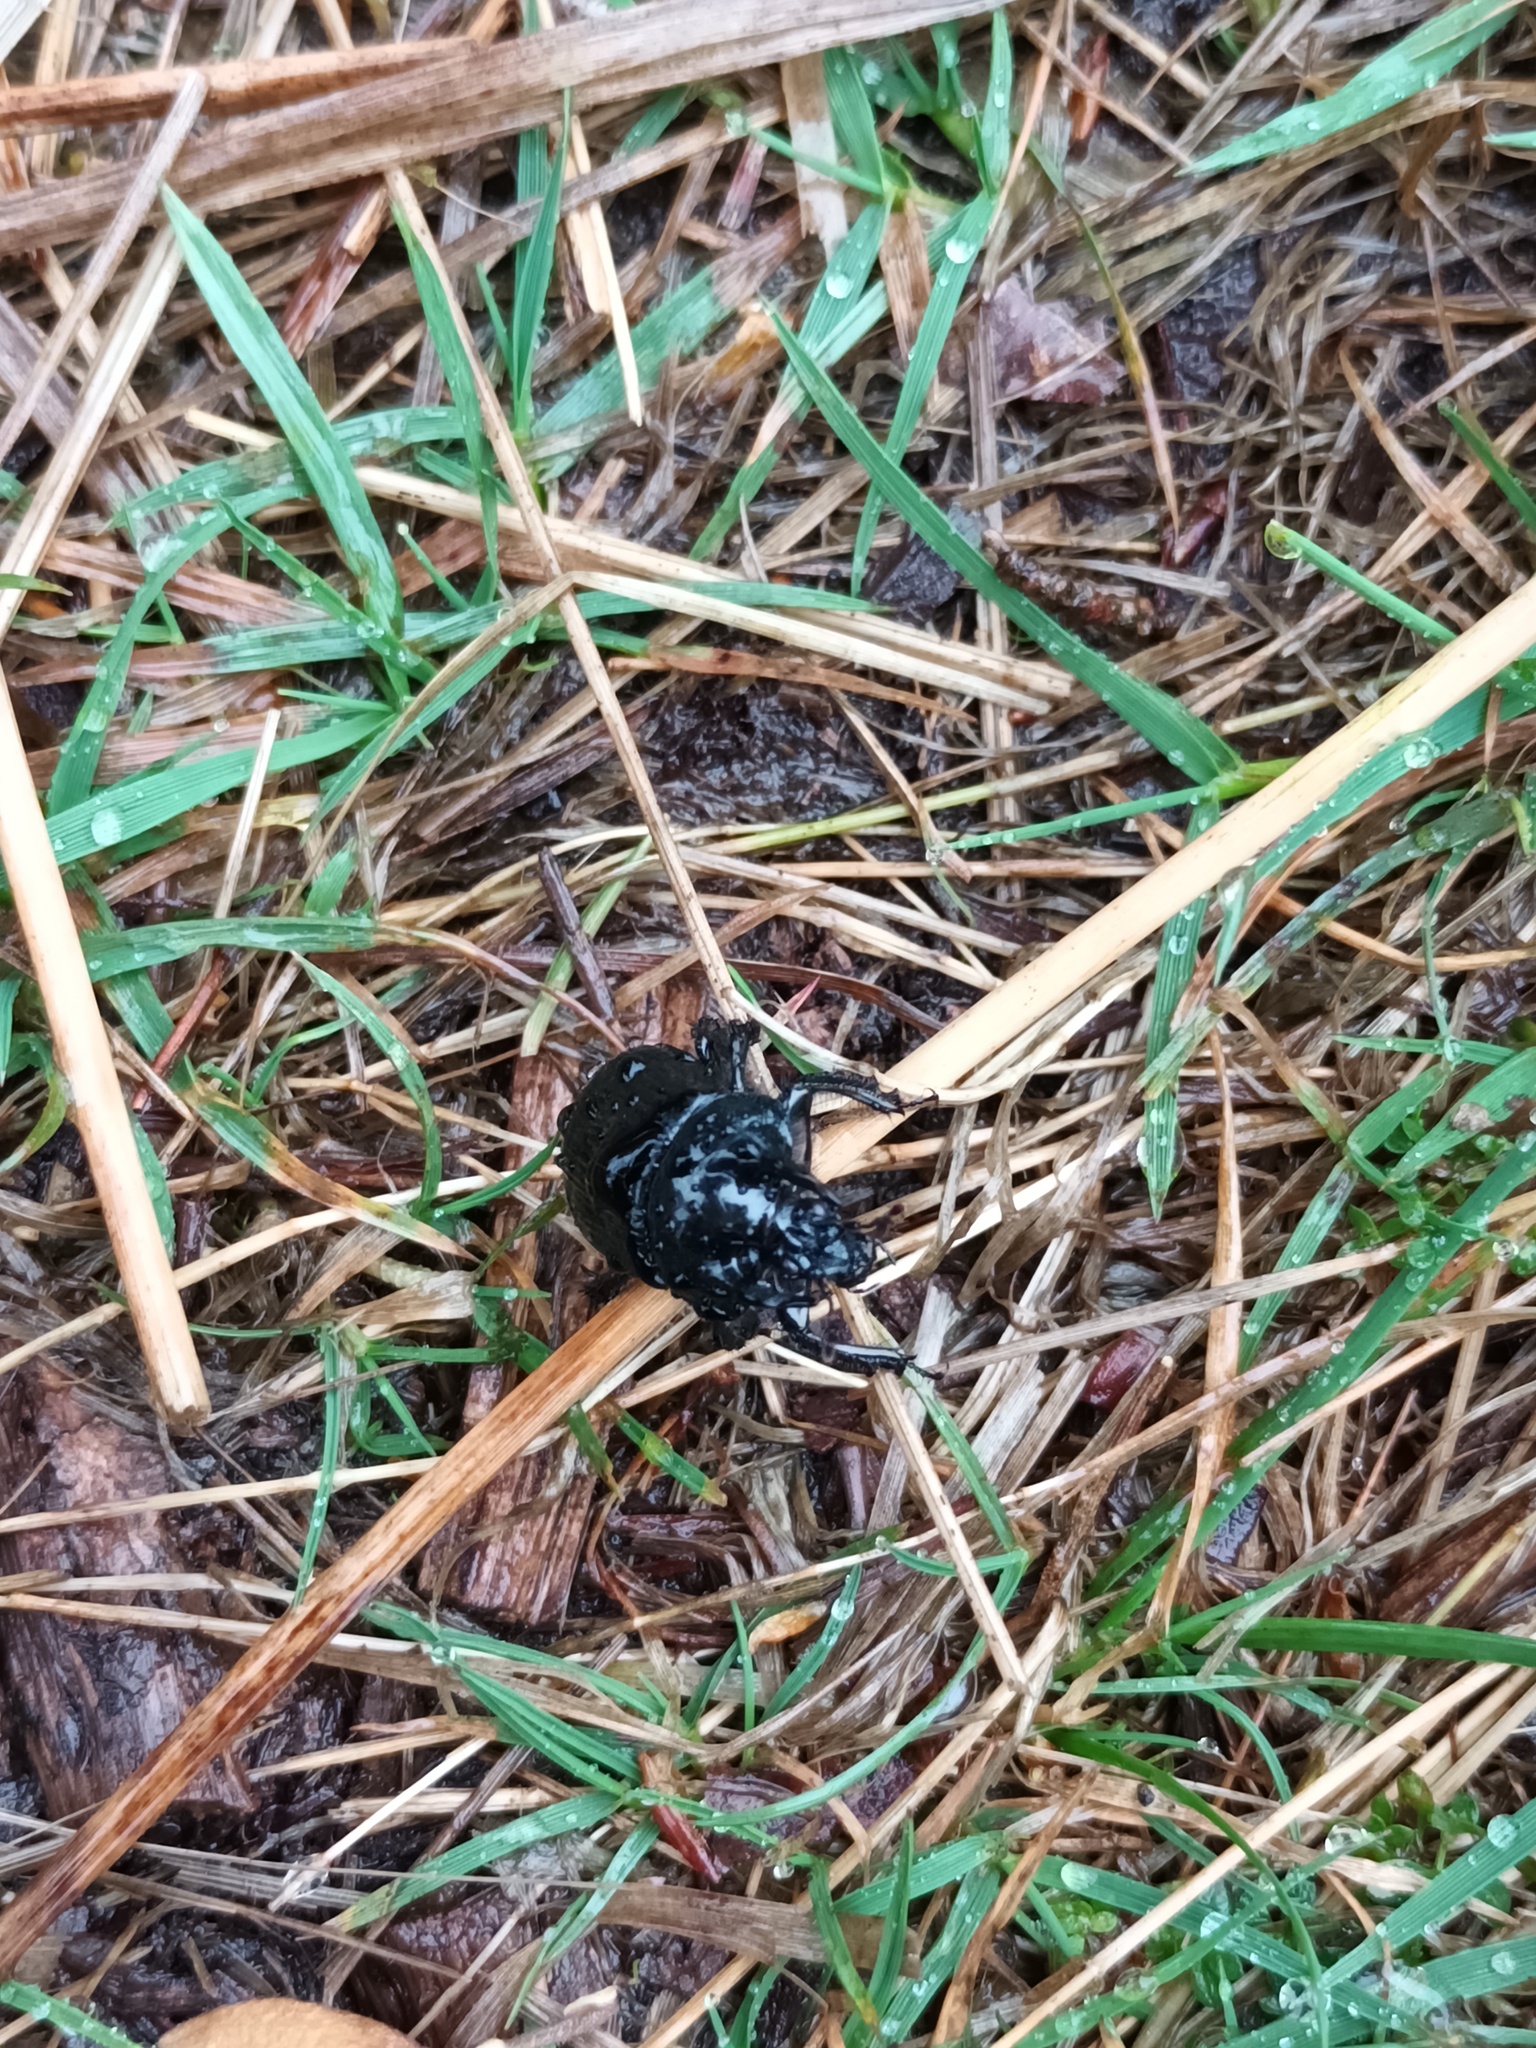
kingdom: Animalia
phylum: Arthropoda
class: Insecta
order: Coleoptera
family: Geotrupidae
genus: Typhaeus
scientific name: Typhaeus typhoeus
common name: Minotaur beetle
